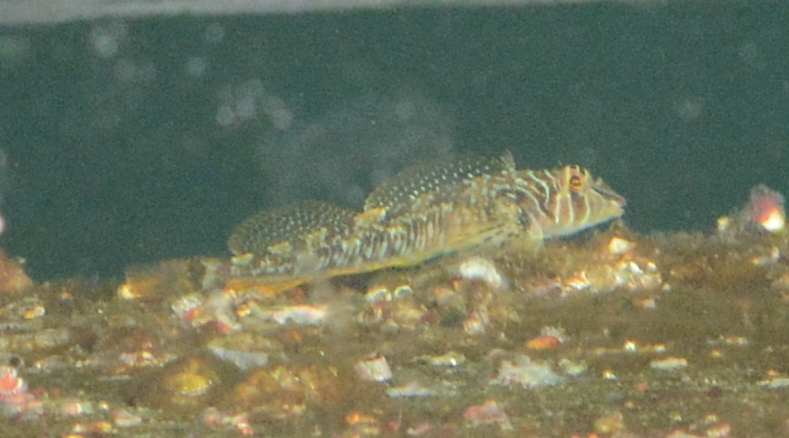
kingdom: Animalia
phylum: Chordata
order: Scorpaeniformes
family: Cottidae
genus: Jordania
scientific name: Jordania zonope
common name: Longfin sculpin
